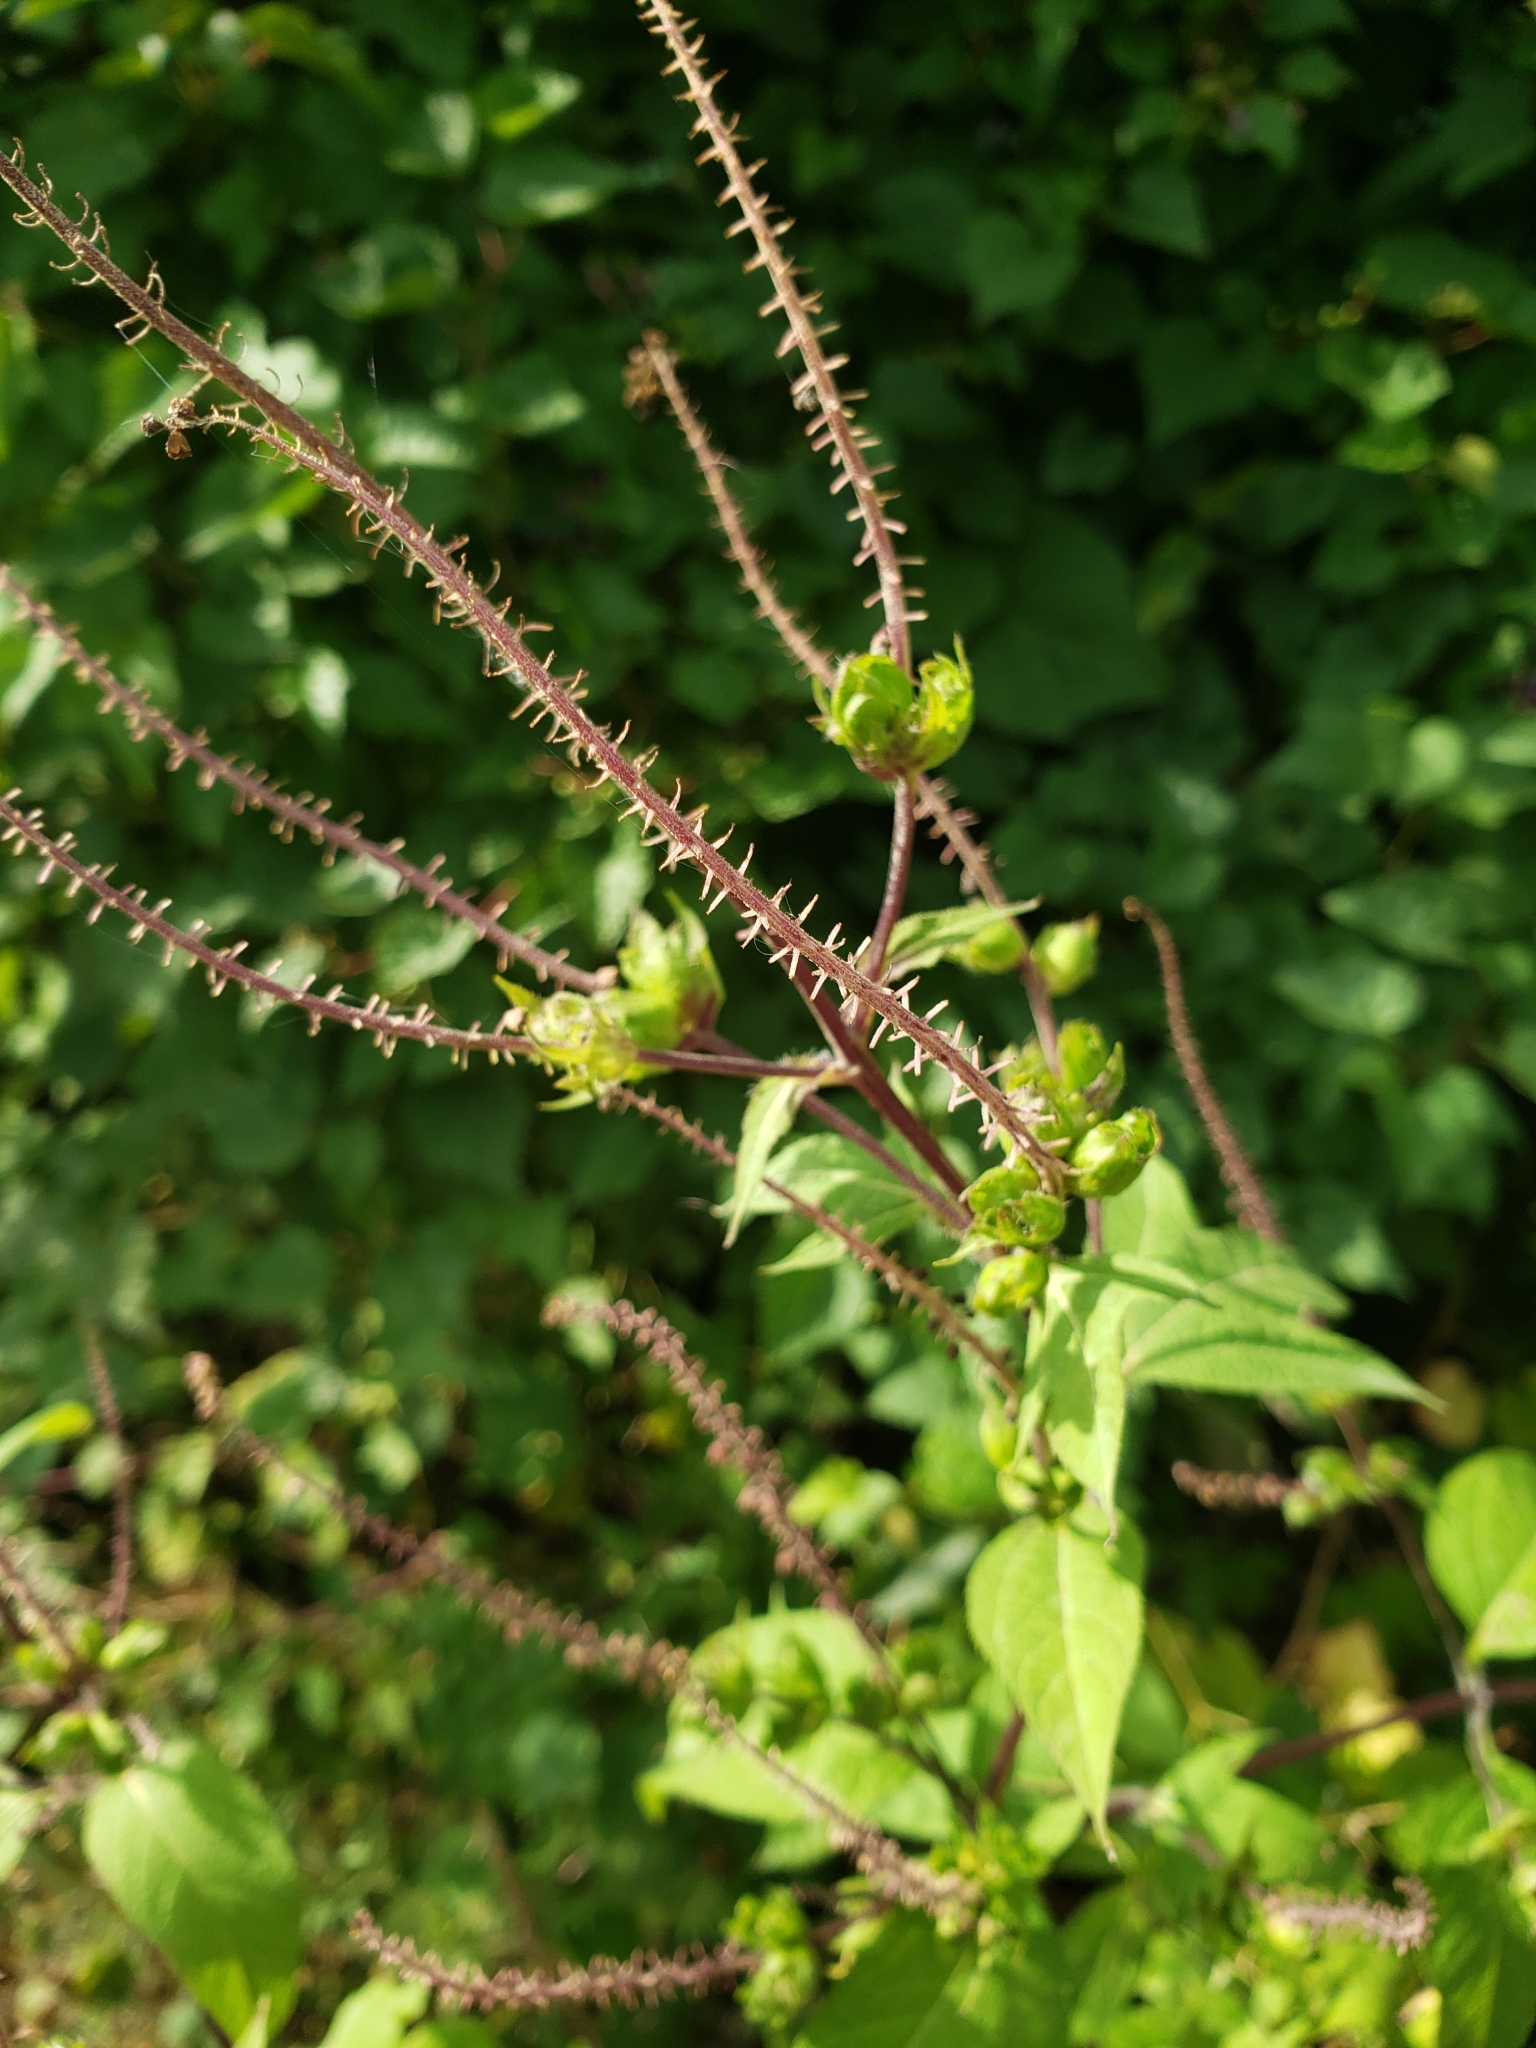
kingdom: Plantae
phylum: Tracheophyta
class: Magnoliopsida
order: Asterales
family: Asteraceae
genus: Ambrosia
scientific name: Ambrosia trifida
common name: Giant ragweed
